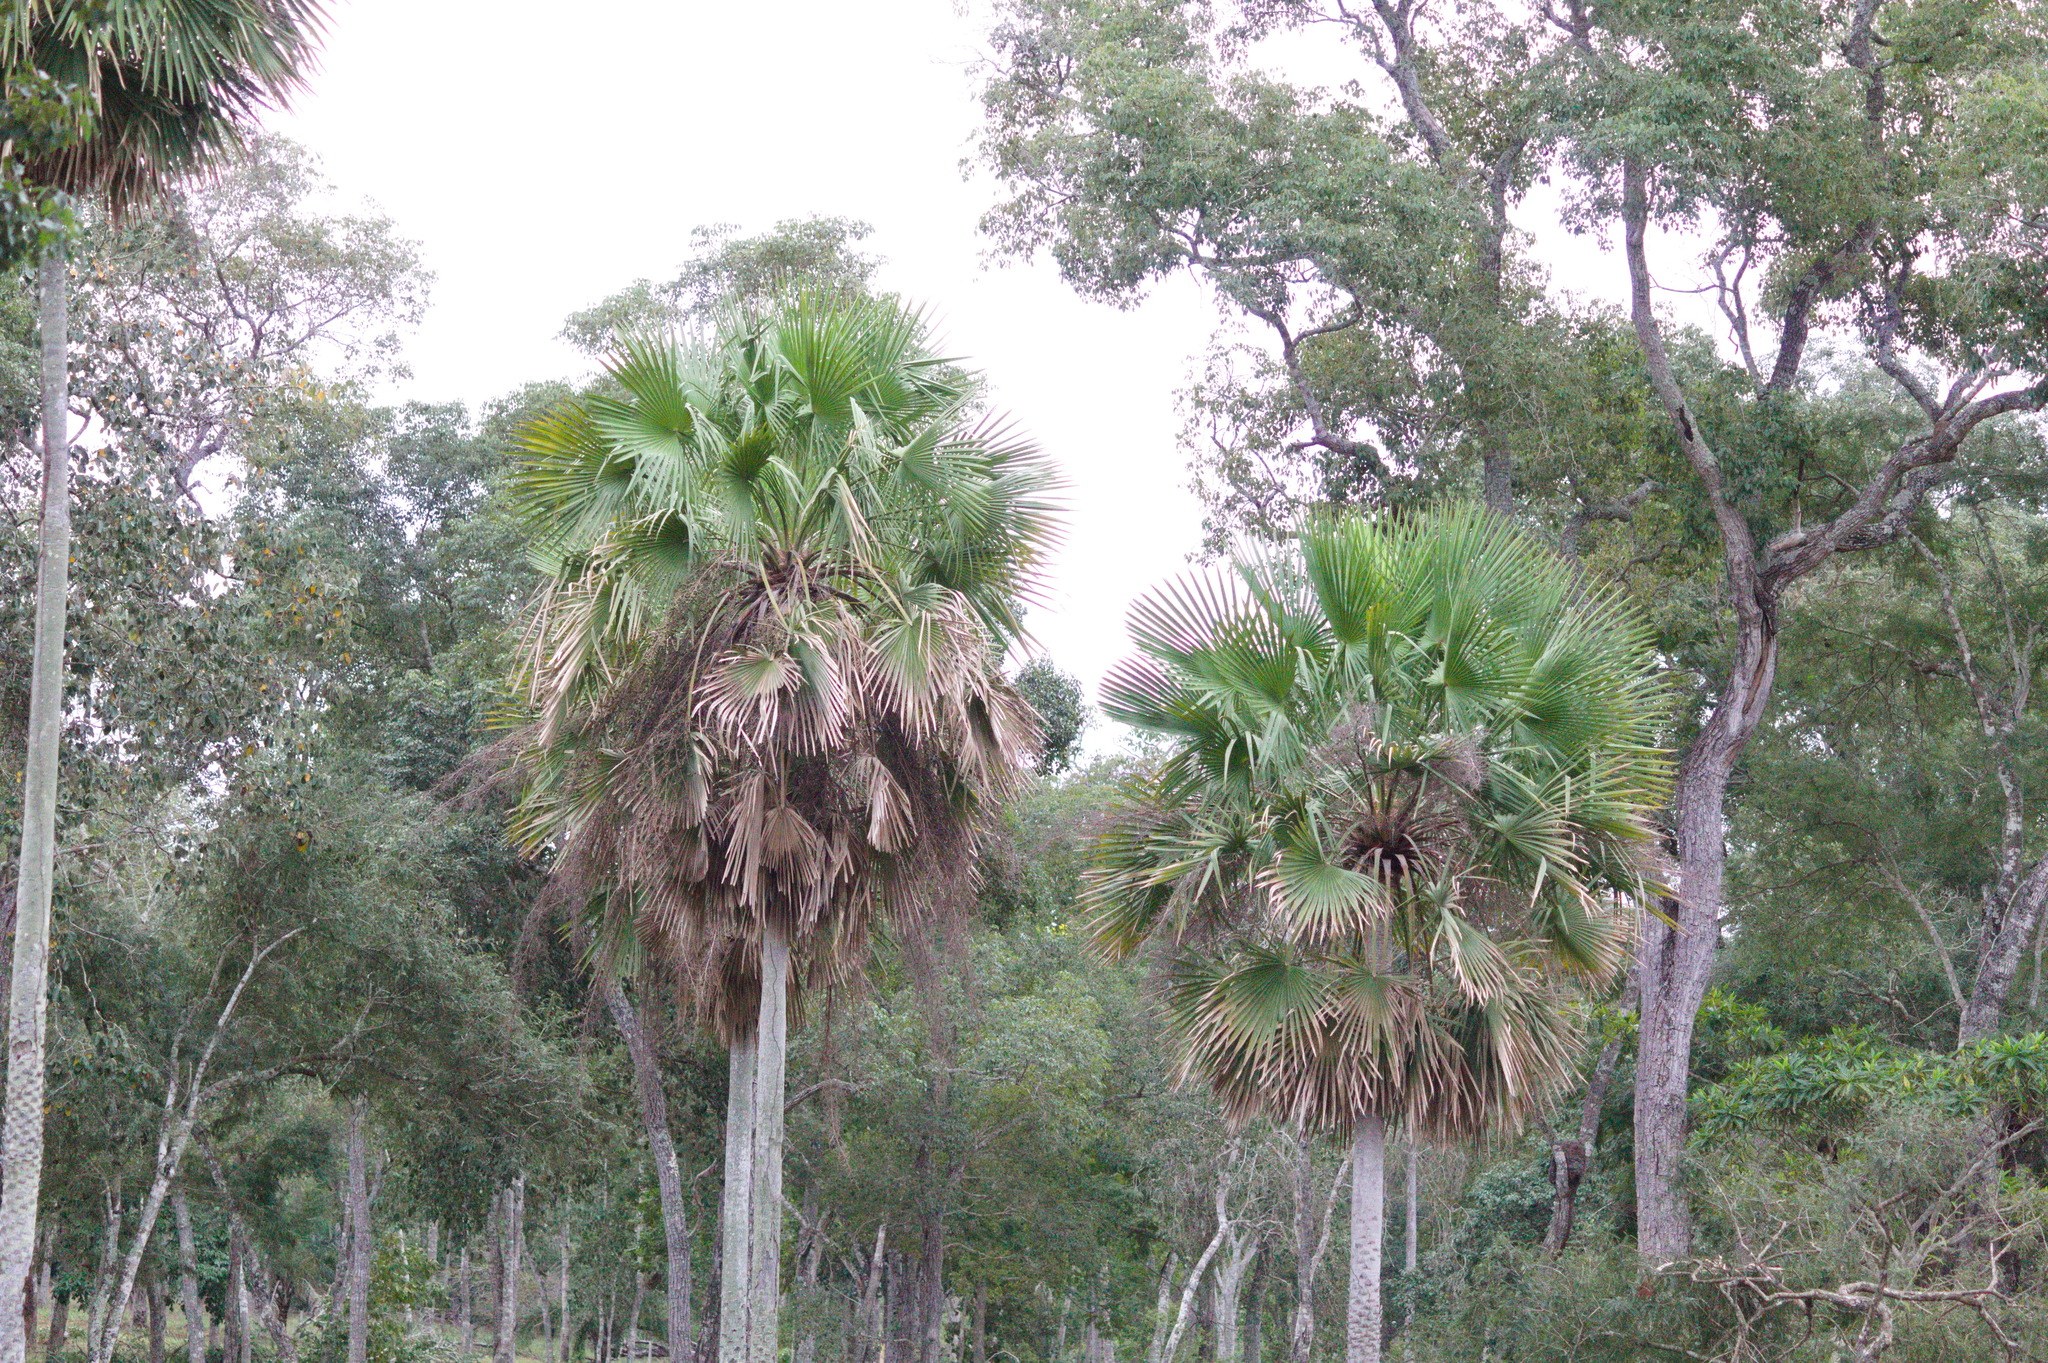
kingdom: Plantae
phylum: Tracheophyta
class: Liliopsida
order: Arecales
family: Arecaceae
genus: Copernicia
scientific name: Copernicia alba
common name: Caranday palm
